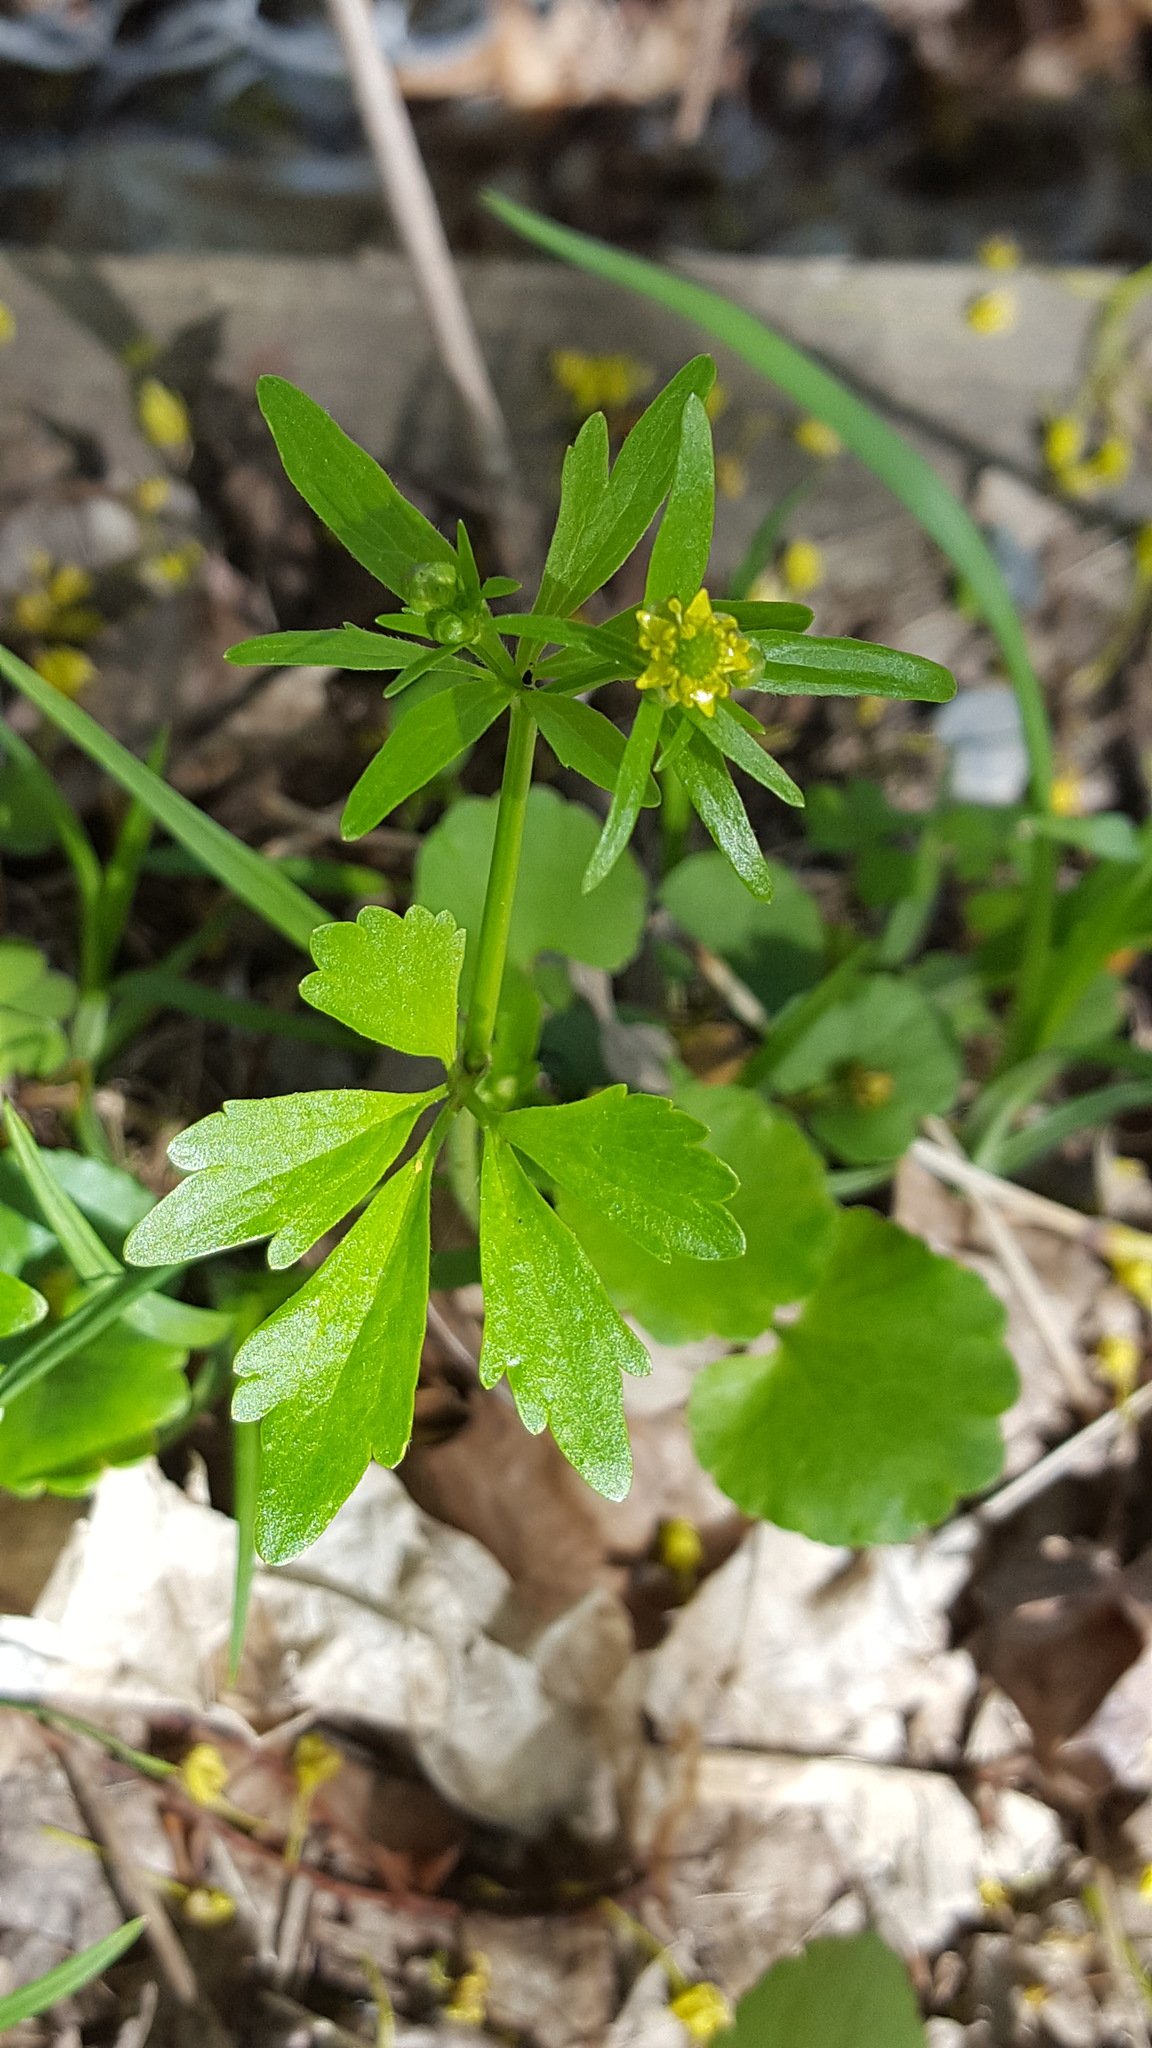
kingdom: Plantae
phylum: Tracheophyta
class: Magnoliopsida
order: Ranunculales
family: Ranunculaceae
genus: Ranunculus
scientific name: Ranunculus abortivus
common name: Early wood buttercup
